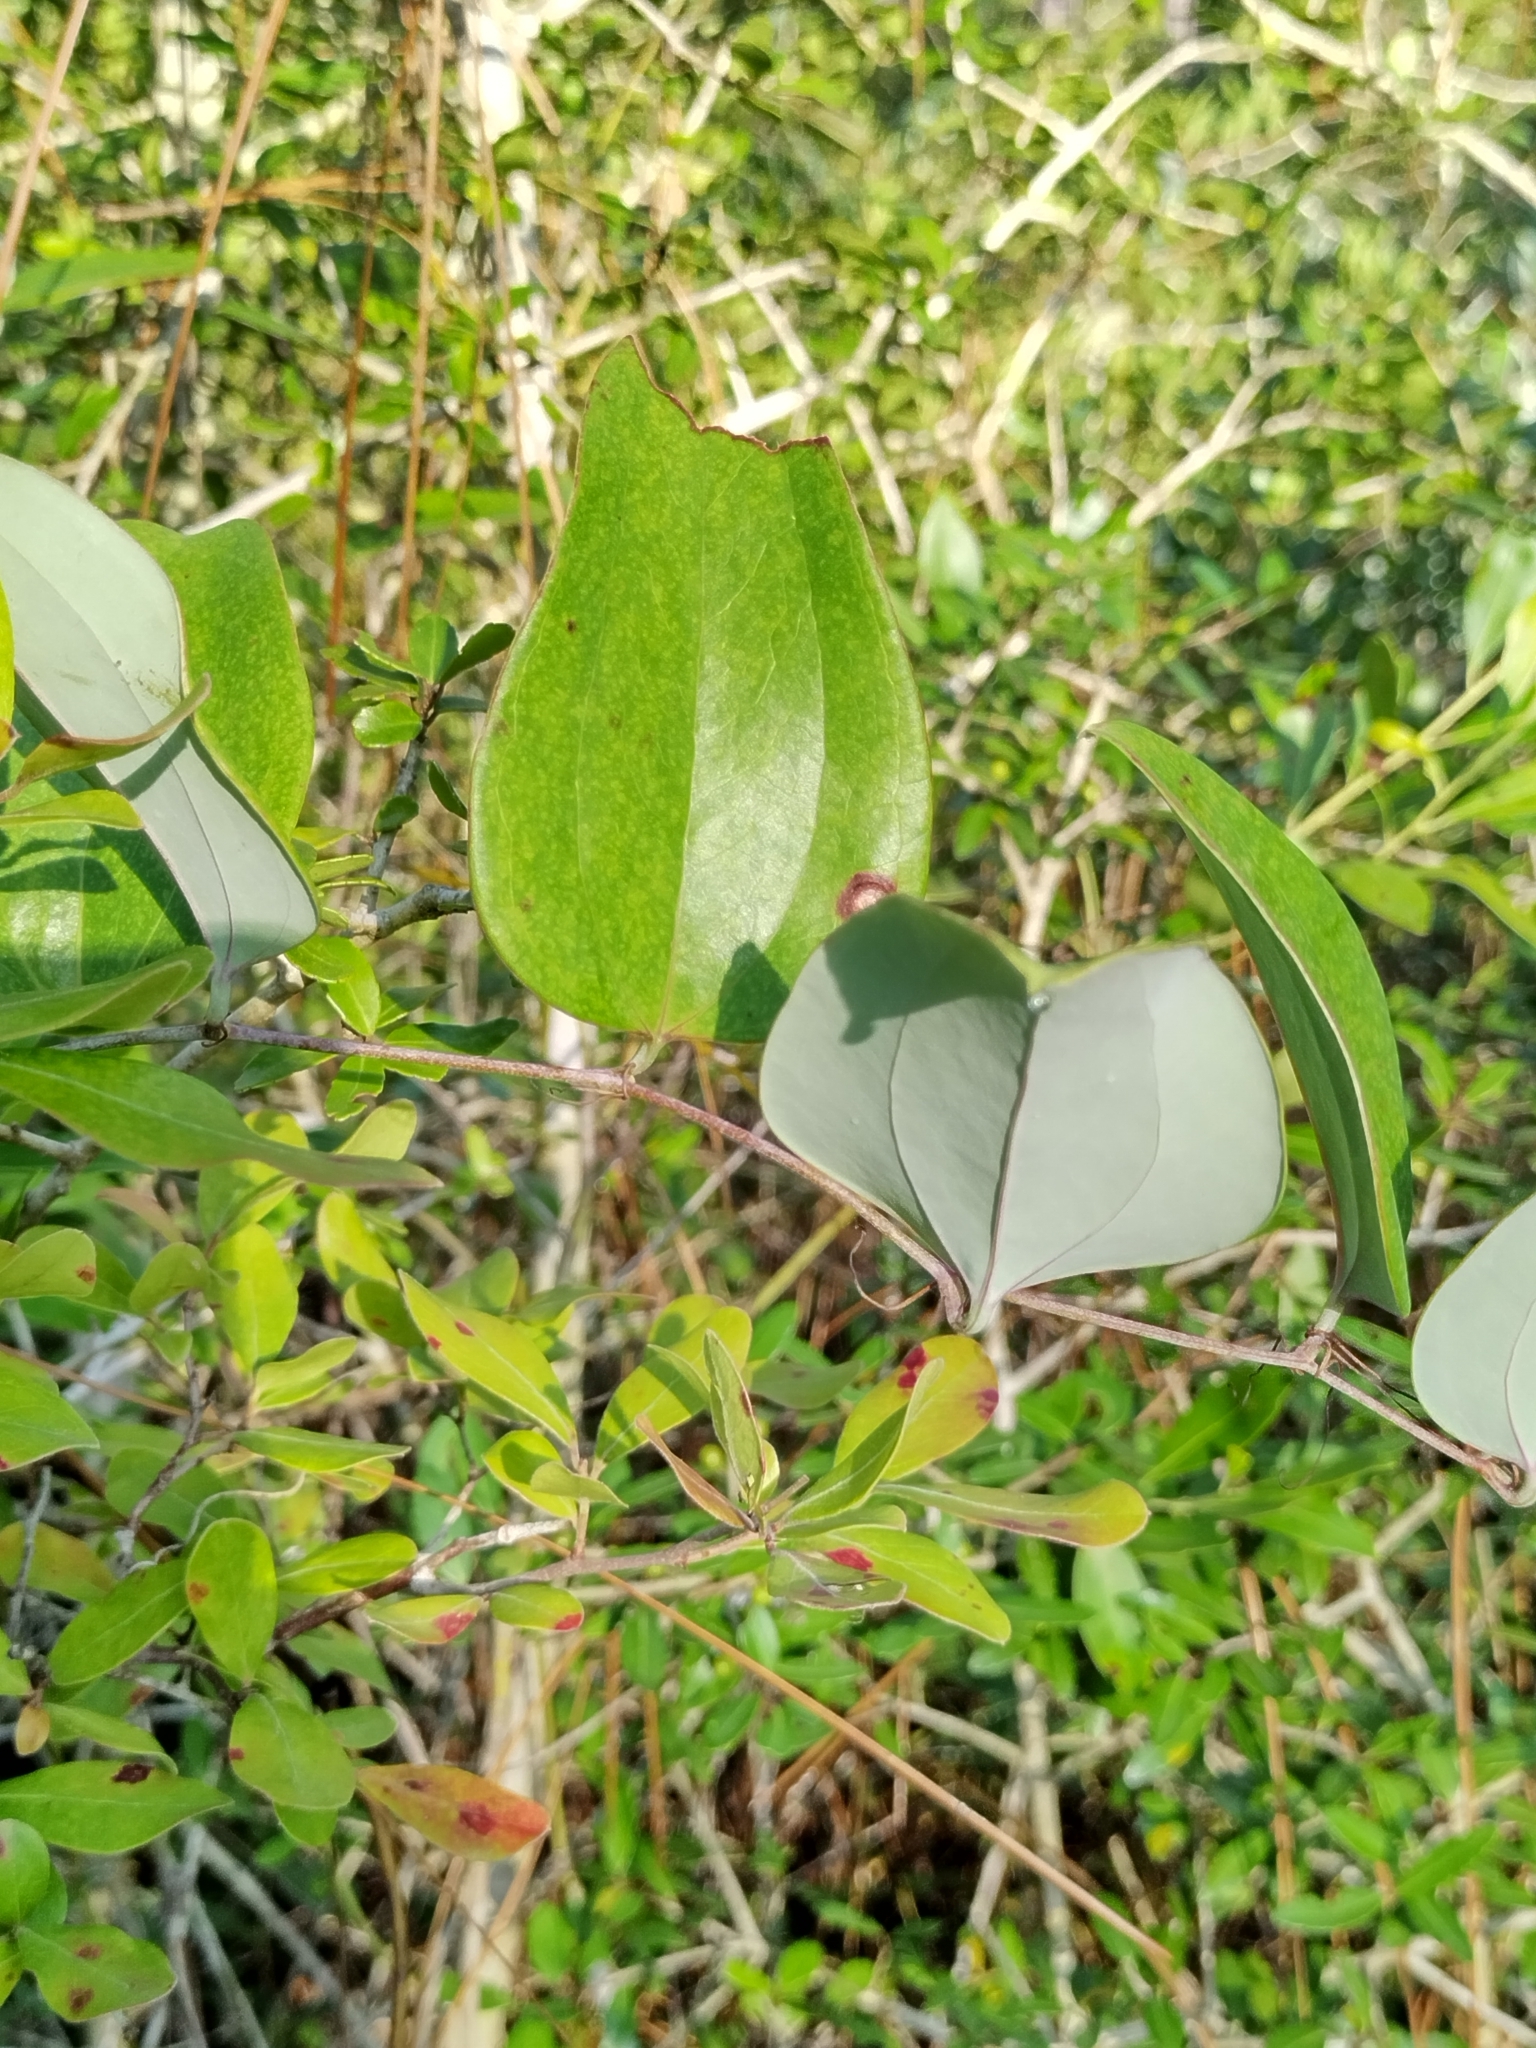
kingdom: Plantae
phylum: Tracheophyta
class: Liliopsida
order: Liliales
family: Smilacaceae
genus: Smilax
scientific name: Smilax glauca
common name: Cat greenbrier
